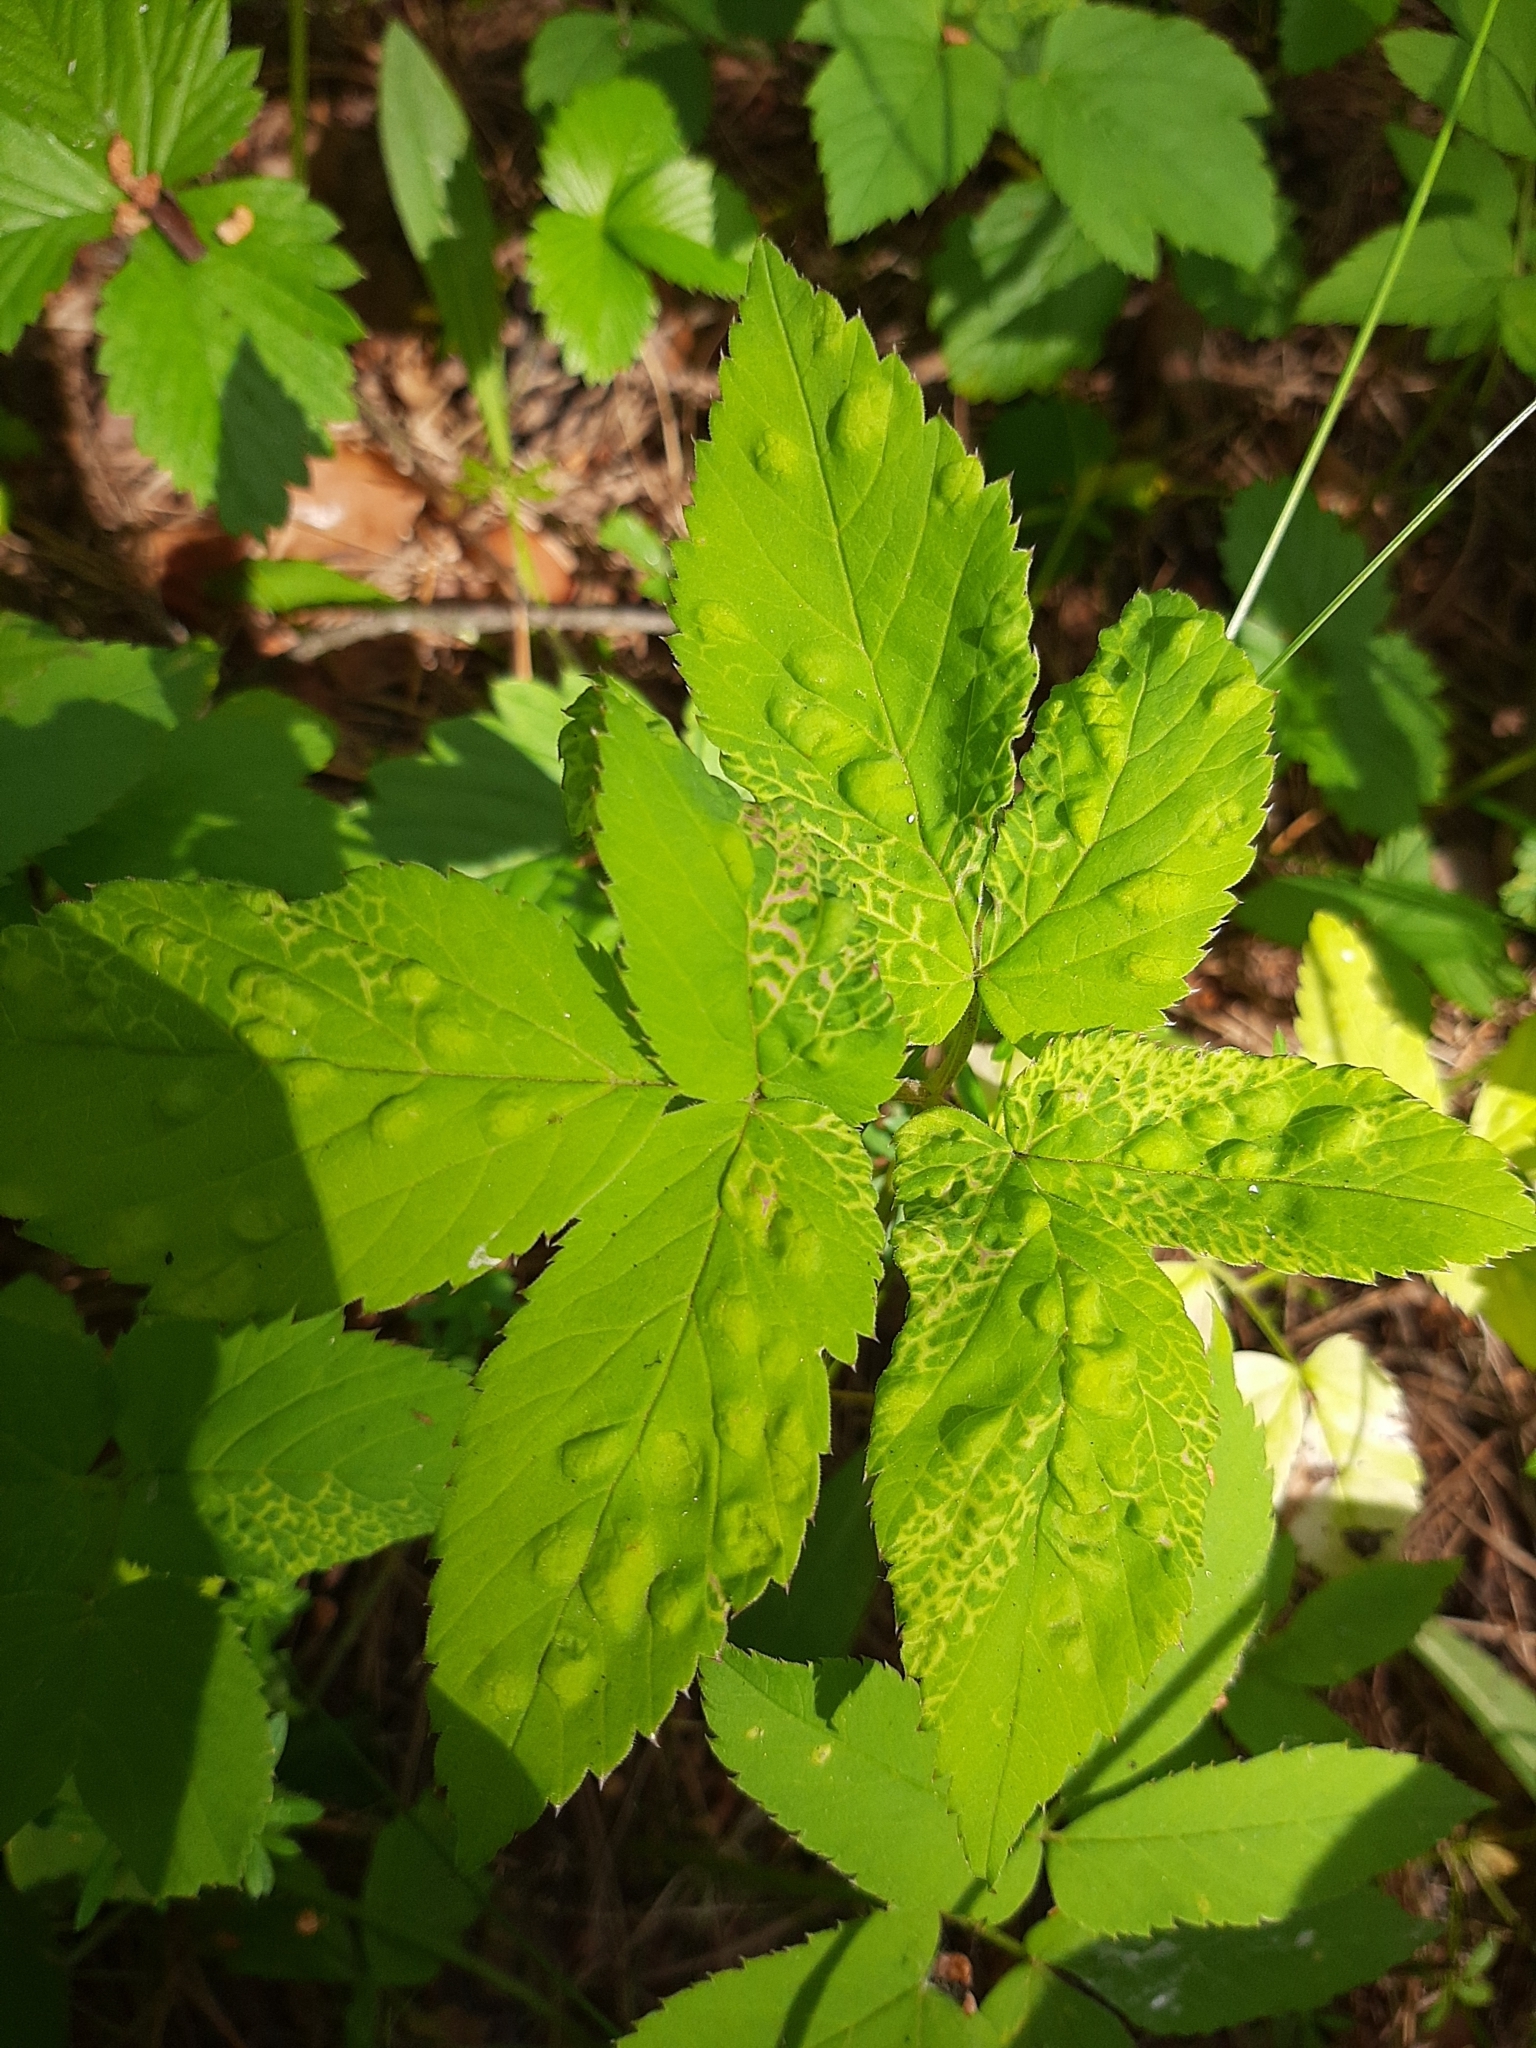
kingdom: Animalia
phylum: Arthropoda
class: Insecta
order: Hemiptera
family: Triozidae
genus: Trioza
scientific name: Trioza flavipennis
